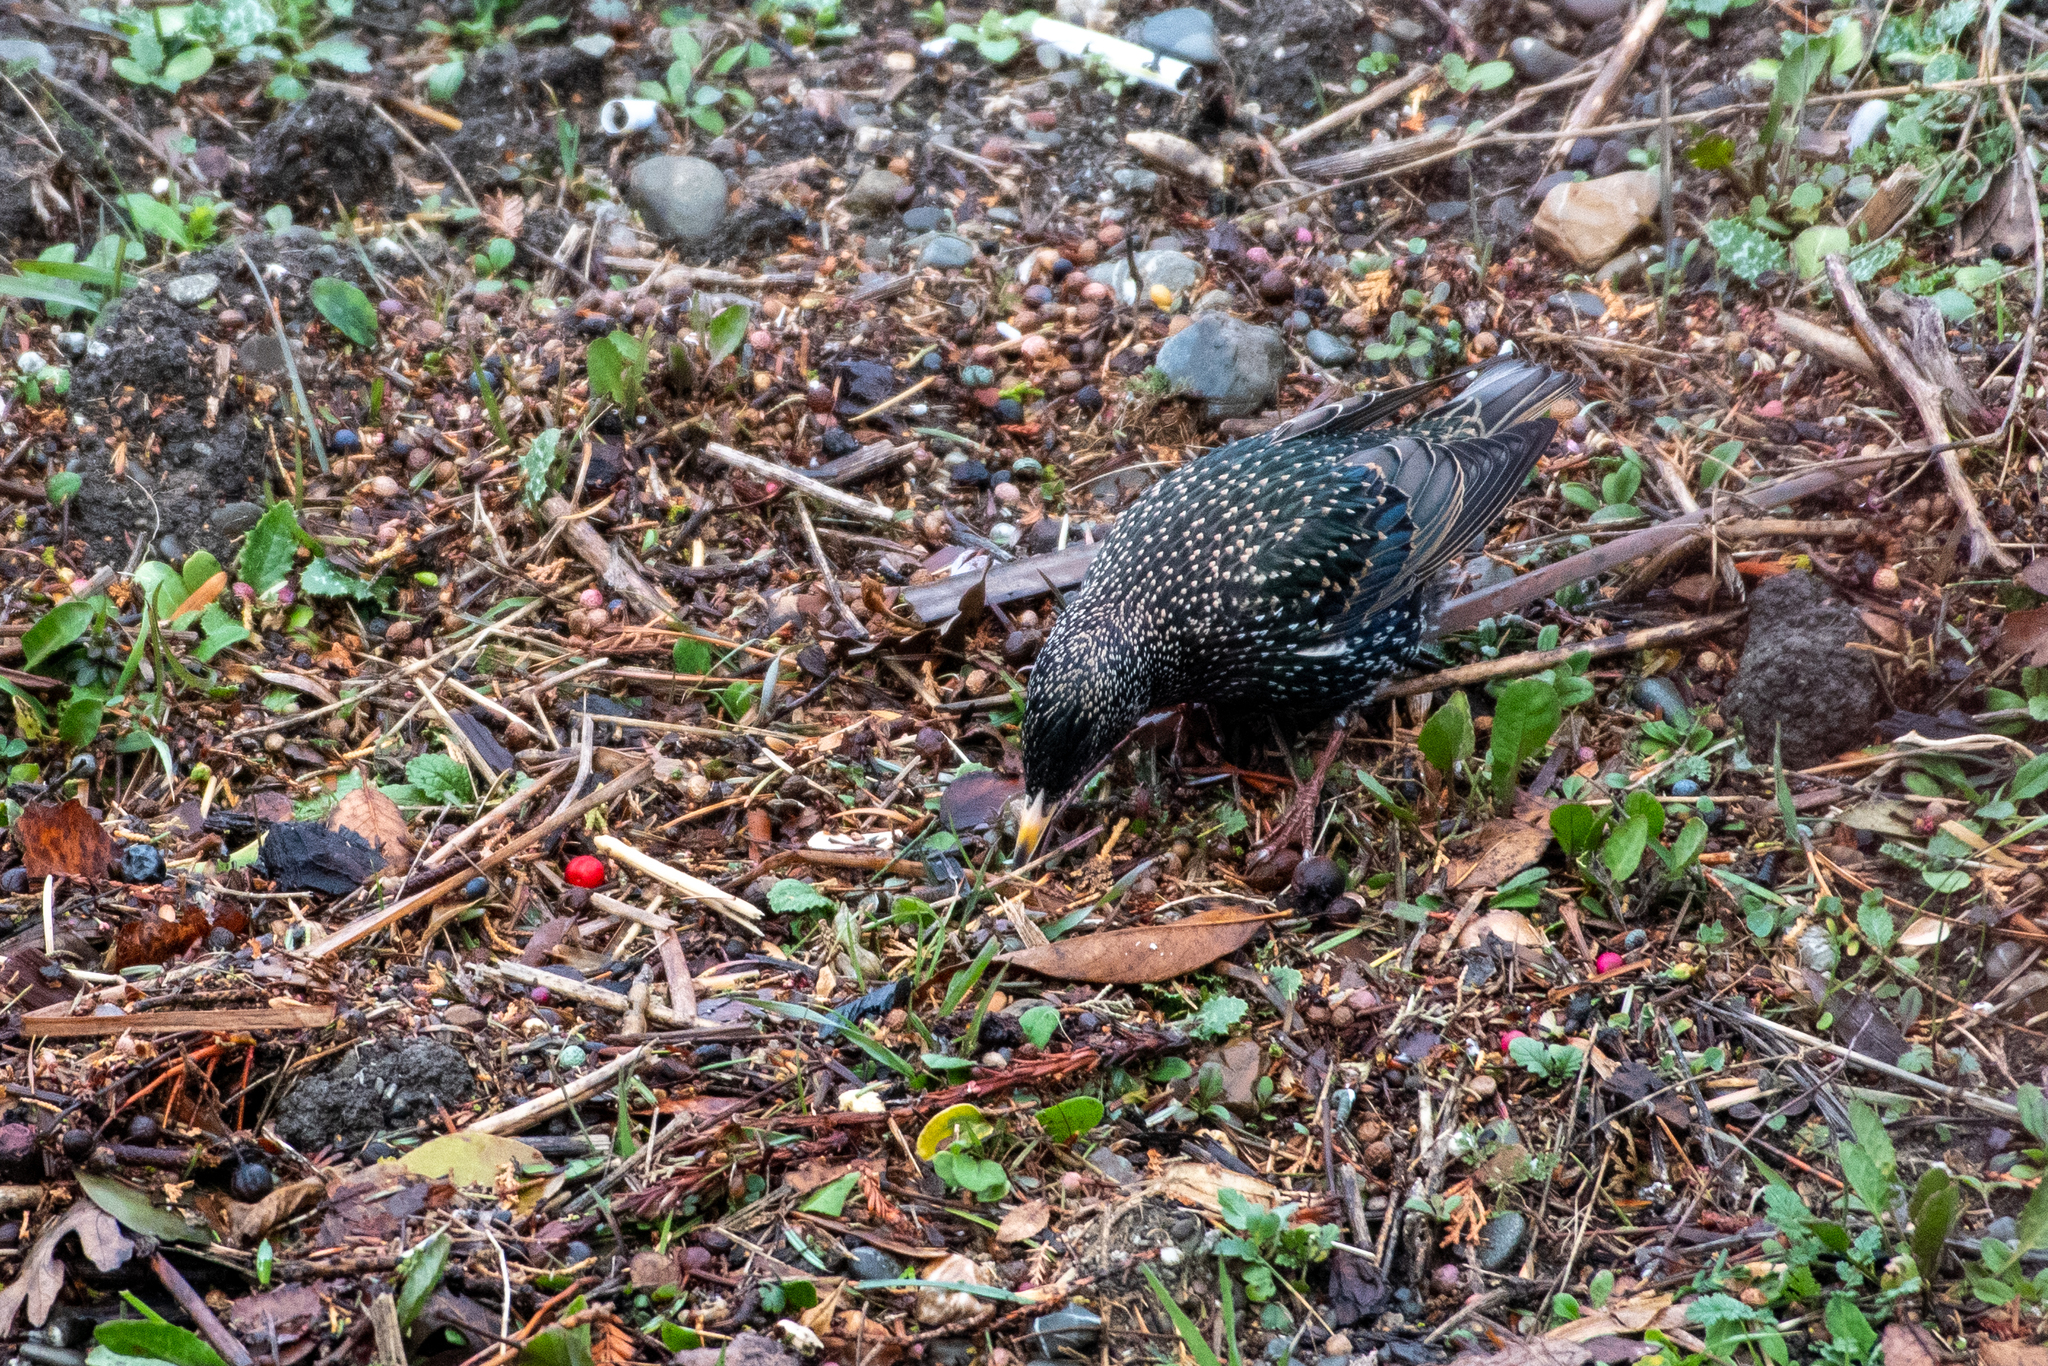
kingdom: Animalia
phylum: Chordata
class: Aves
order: Passeriformes
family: Sturnidae
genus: Sturnus
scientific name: Sturnus vulgaris
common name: Common starling
